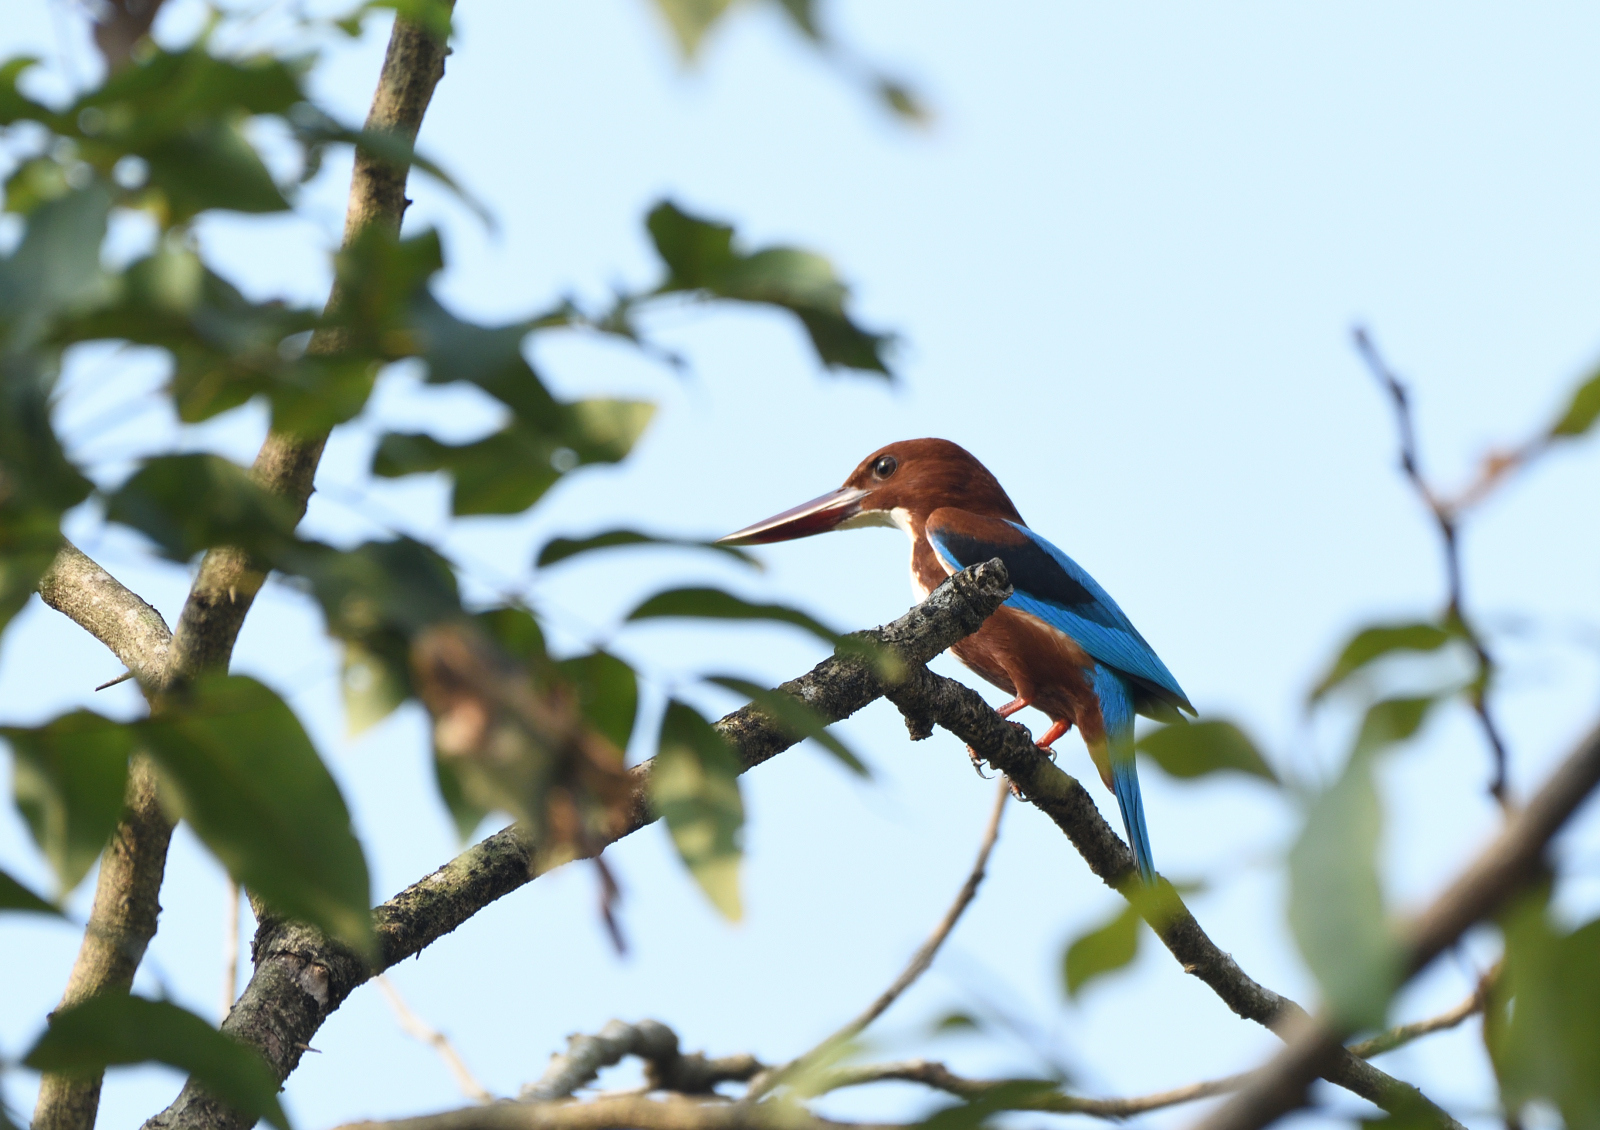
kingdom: Animalia
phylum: Chordata
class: Aves
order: Coraciiformes
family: Alcedinidae
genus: Halcyon
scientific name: Halcyon smyrnensis
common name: White-throated kingfisher
